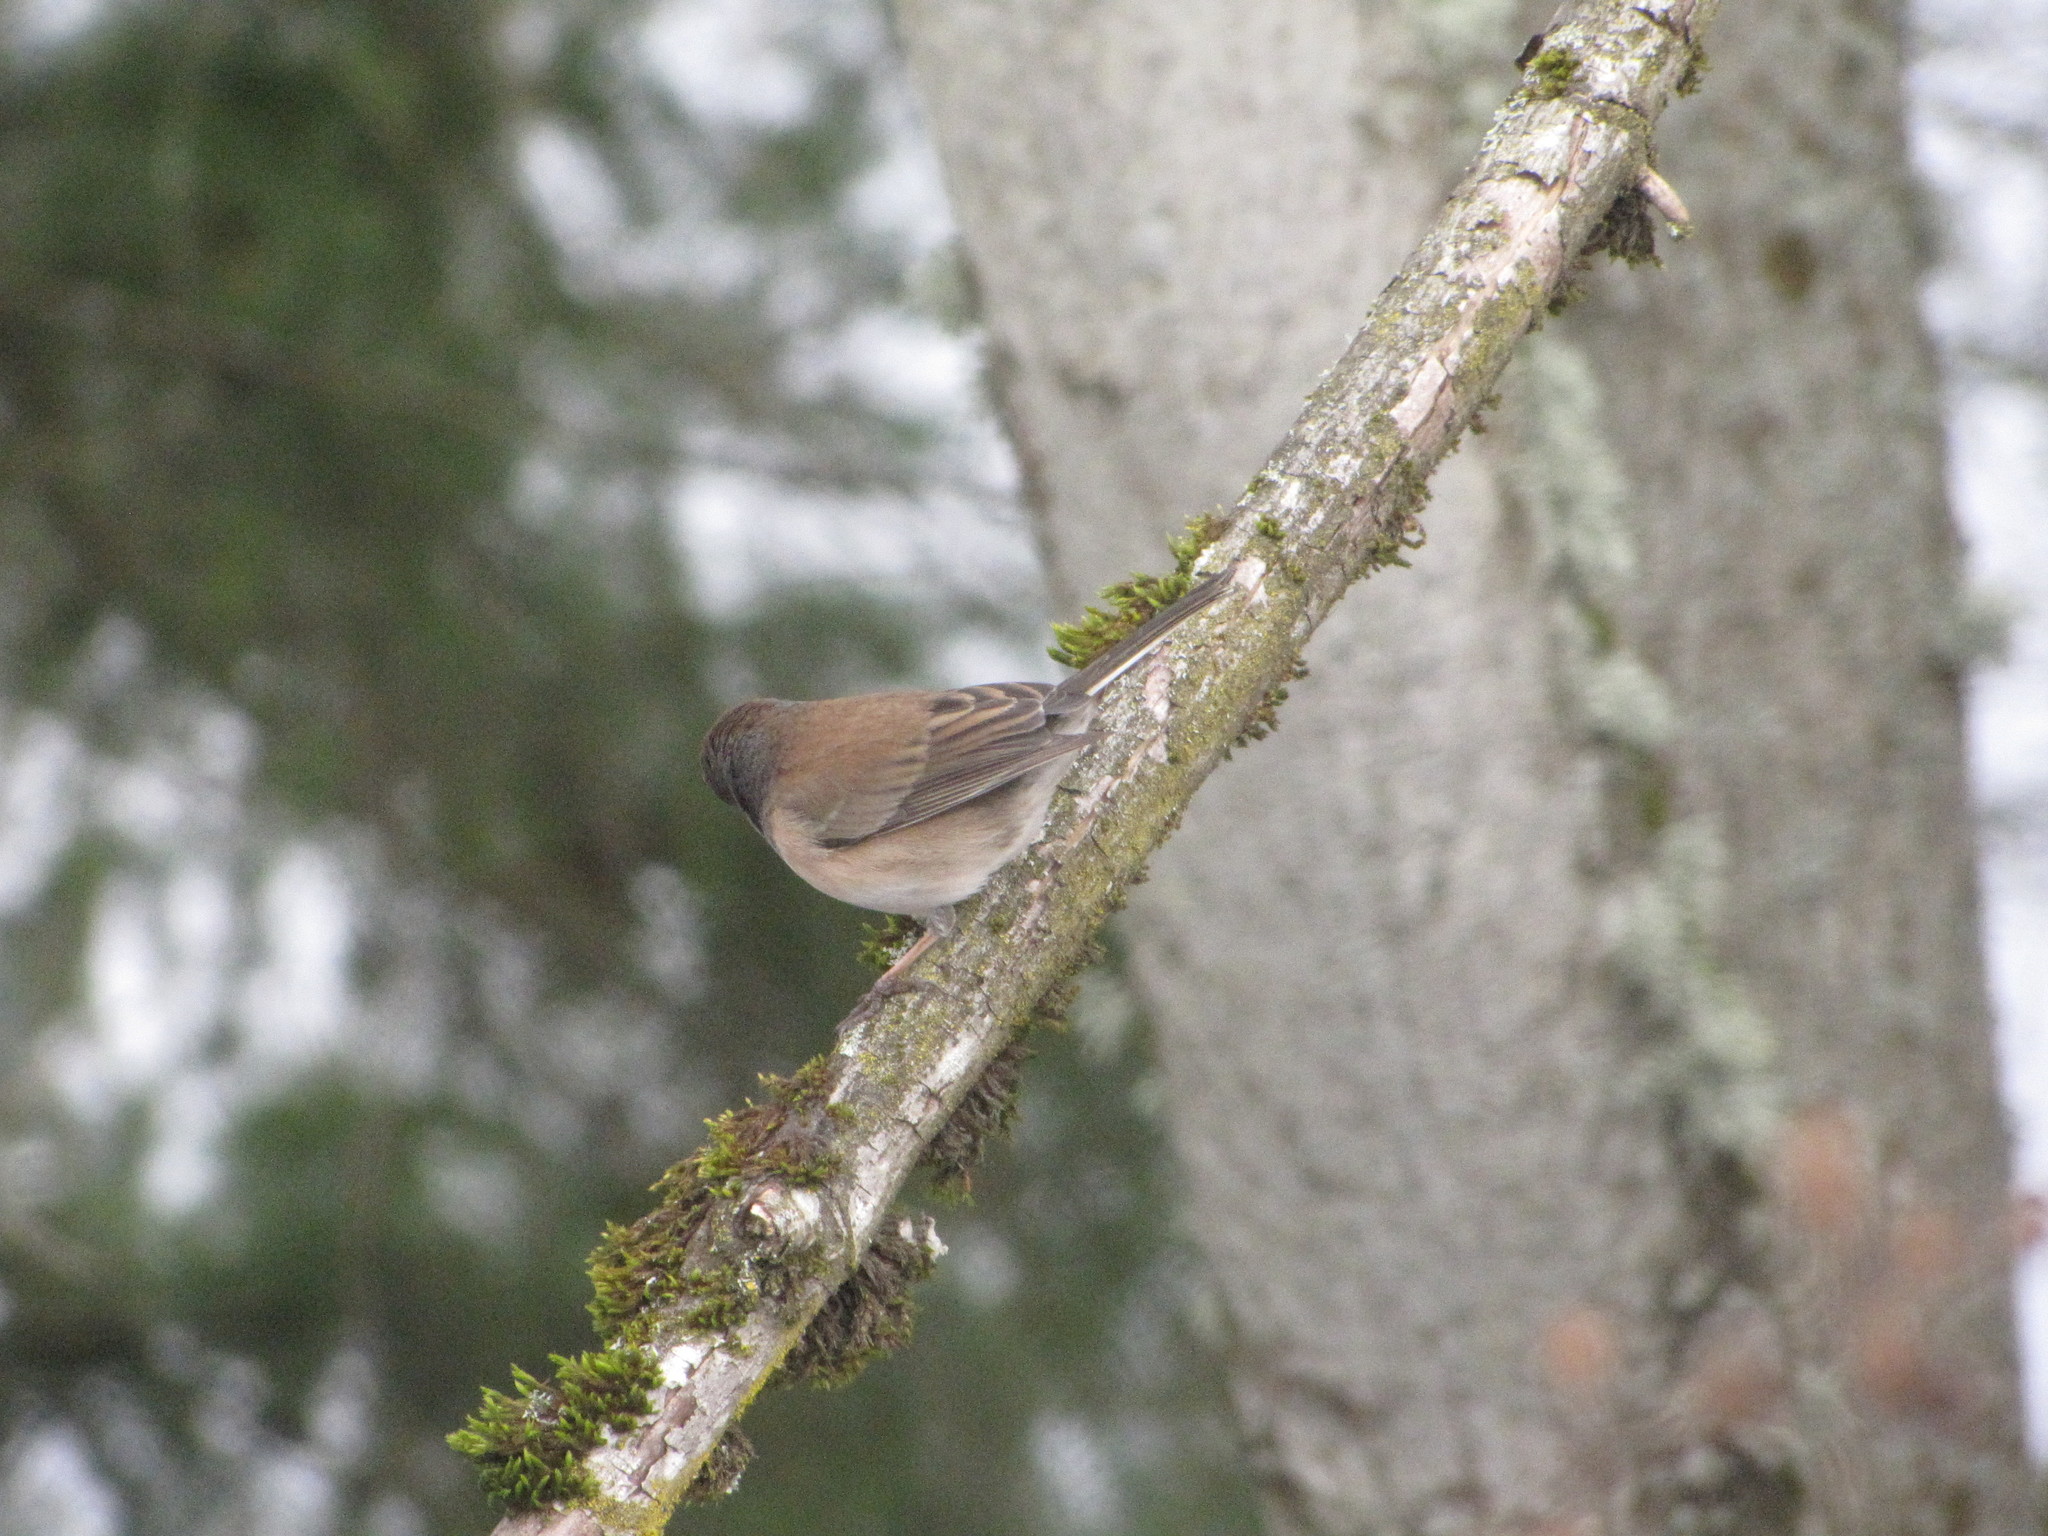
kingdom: Animalia
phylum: Chordata
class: Aves
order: Passeriformes
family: Passerellidae
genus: Junco
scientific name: Junco hyemalis
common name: Dark-eyed junco
